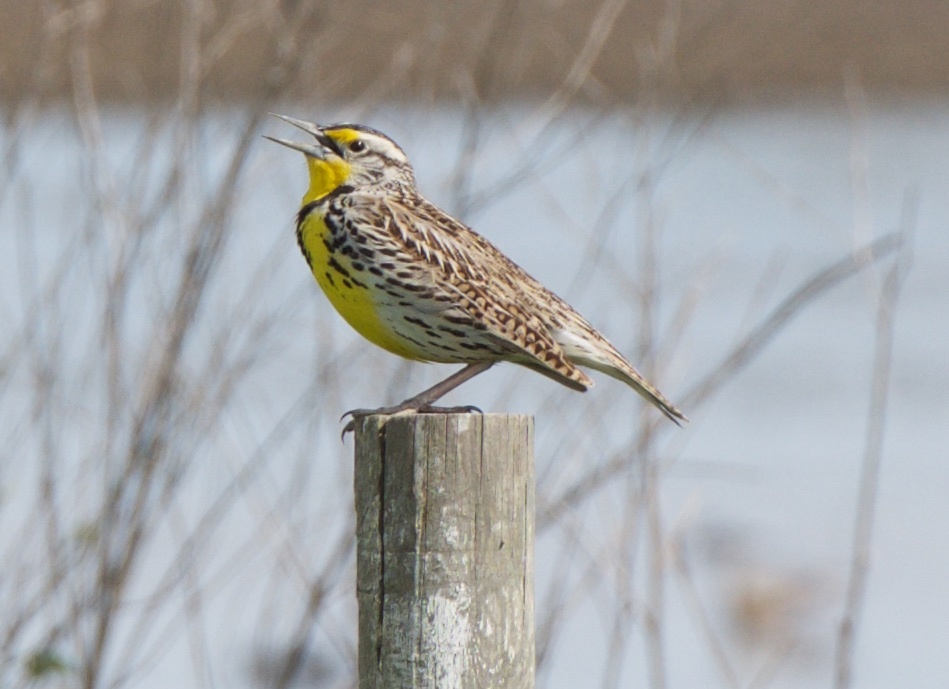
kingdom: Animalia
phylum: Chordata
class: Aves
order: Passeriformes
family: Icteridae
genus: Sturnella
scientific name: Sturnella neglecta
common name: Western meadowlark
